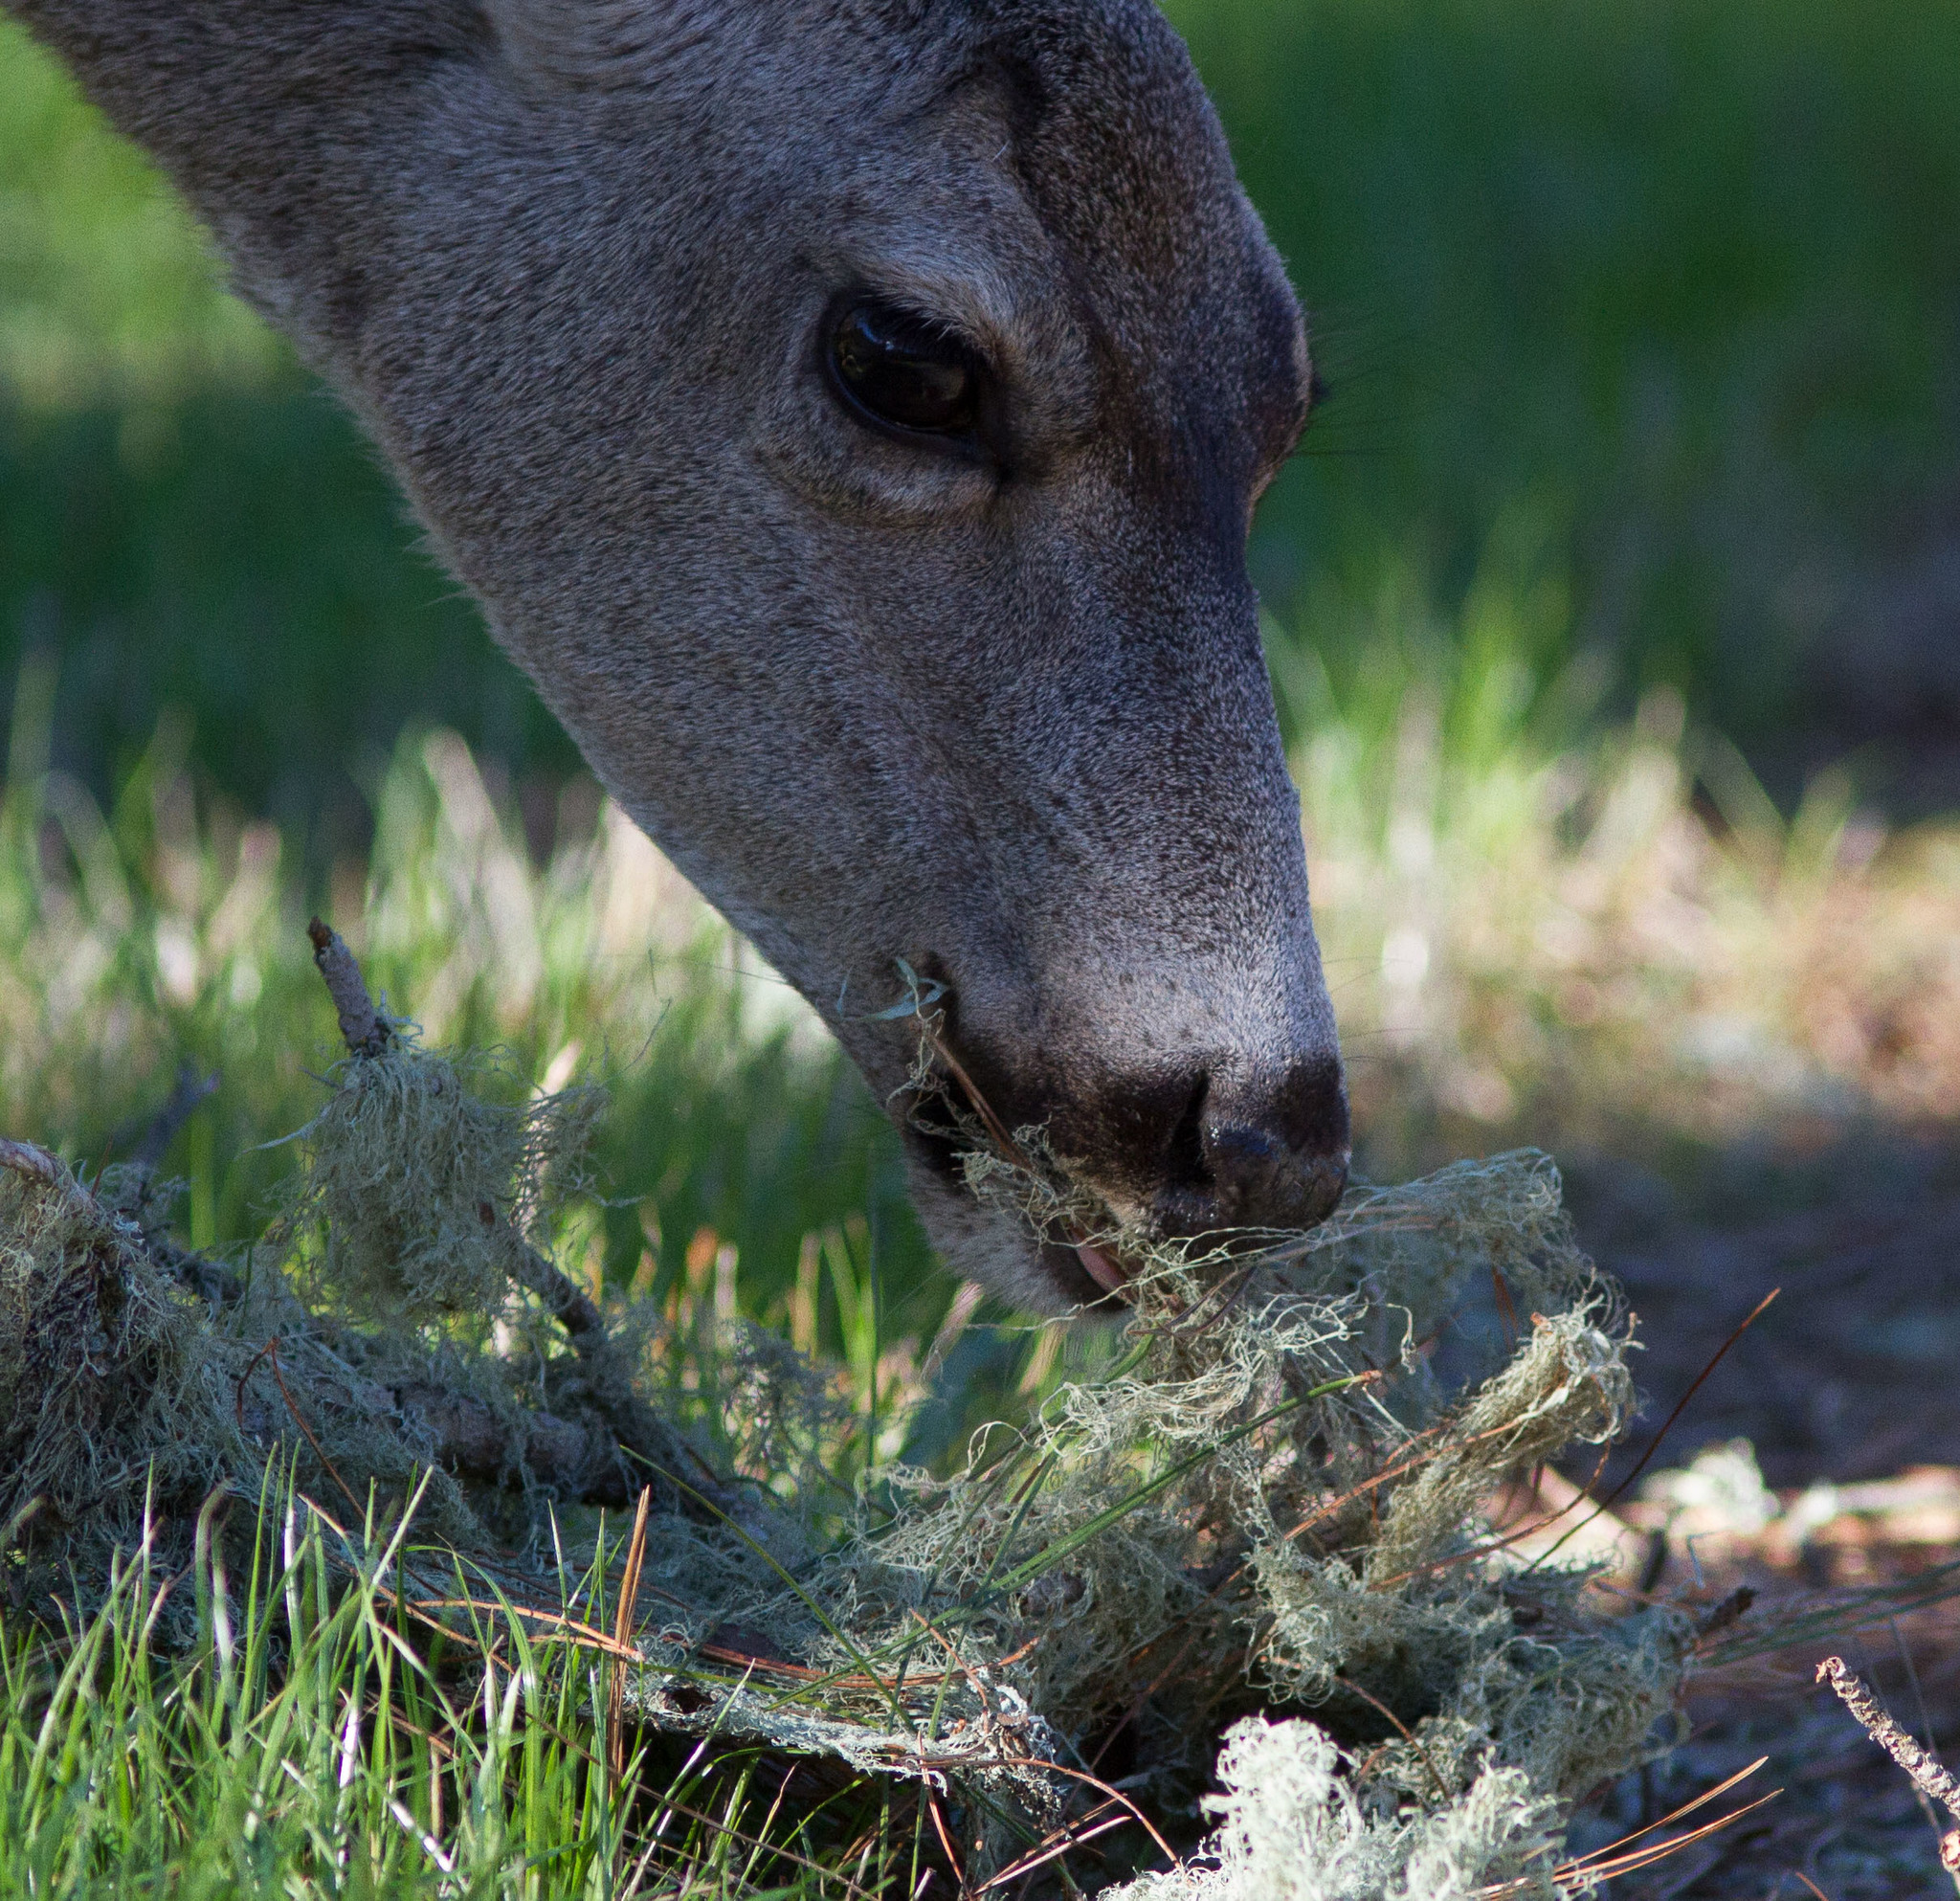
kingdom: Fungi
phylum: Ascomycota
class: Lecanoromycetes
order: Lecanorales
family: Ramalinaceae
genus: Ramalina
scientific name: Ramalina menziesii
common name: Lace lichen
